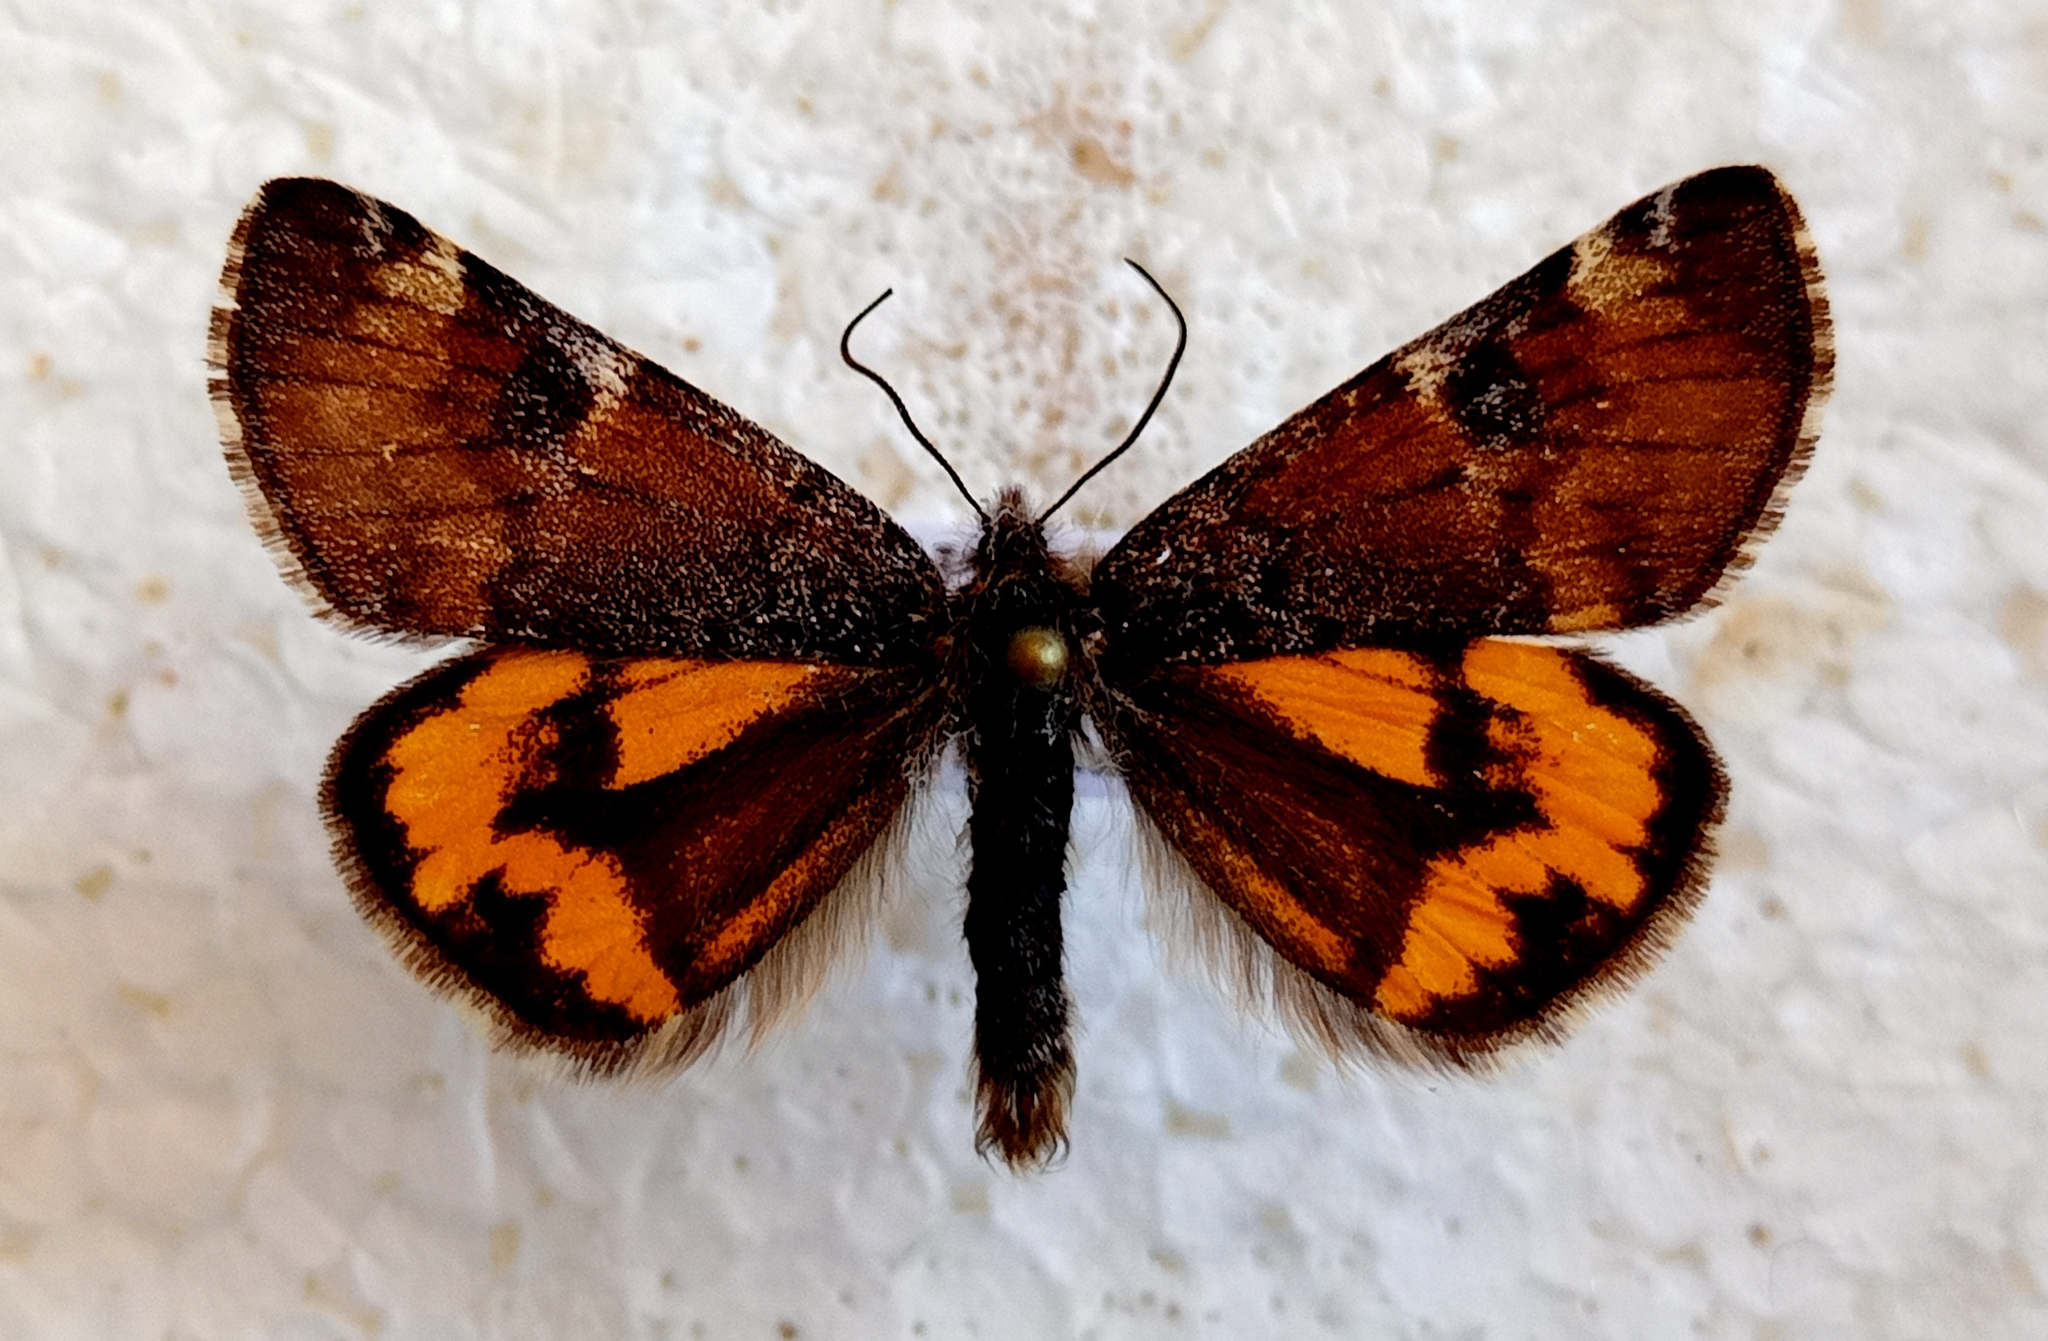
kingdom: Animalia
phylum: Arthropoda
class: Insecta
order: Lepidoptera
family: Geometridae
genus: Archiearis
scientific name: Archiearis parthenias
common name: Orange underwing
